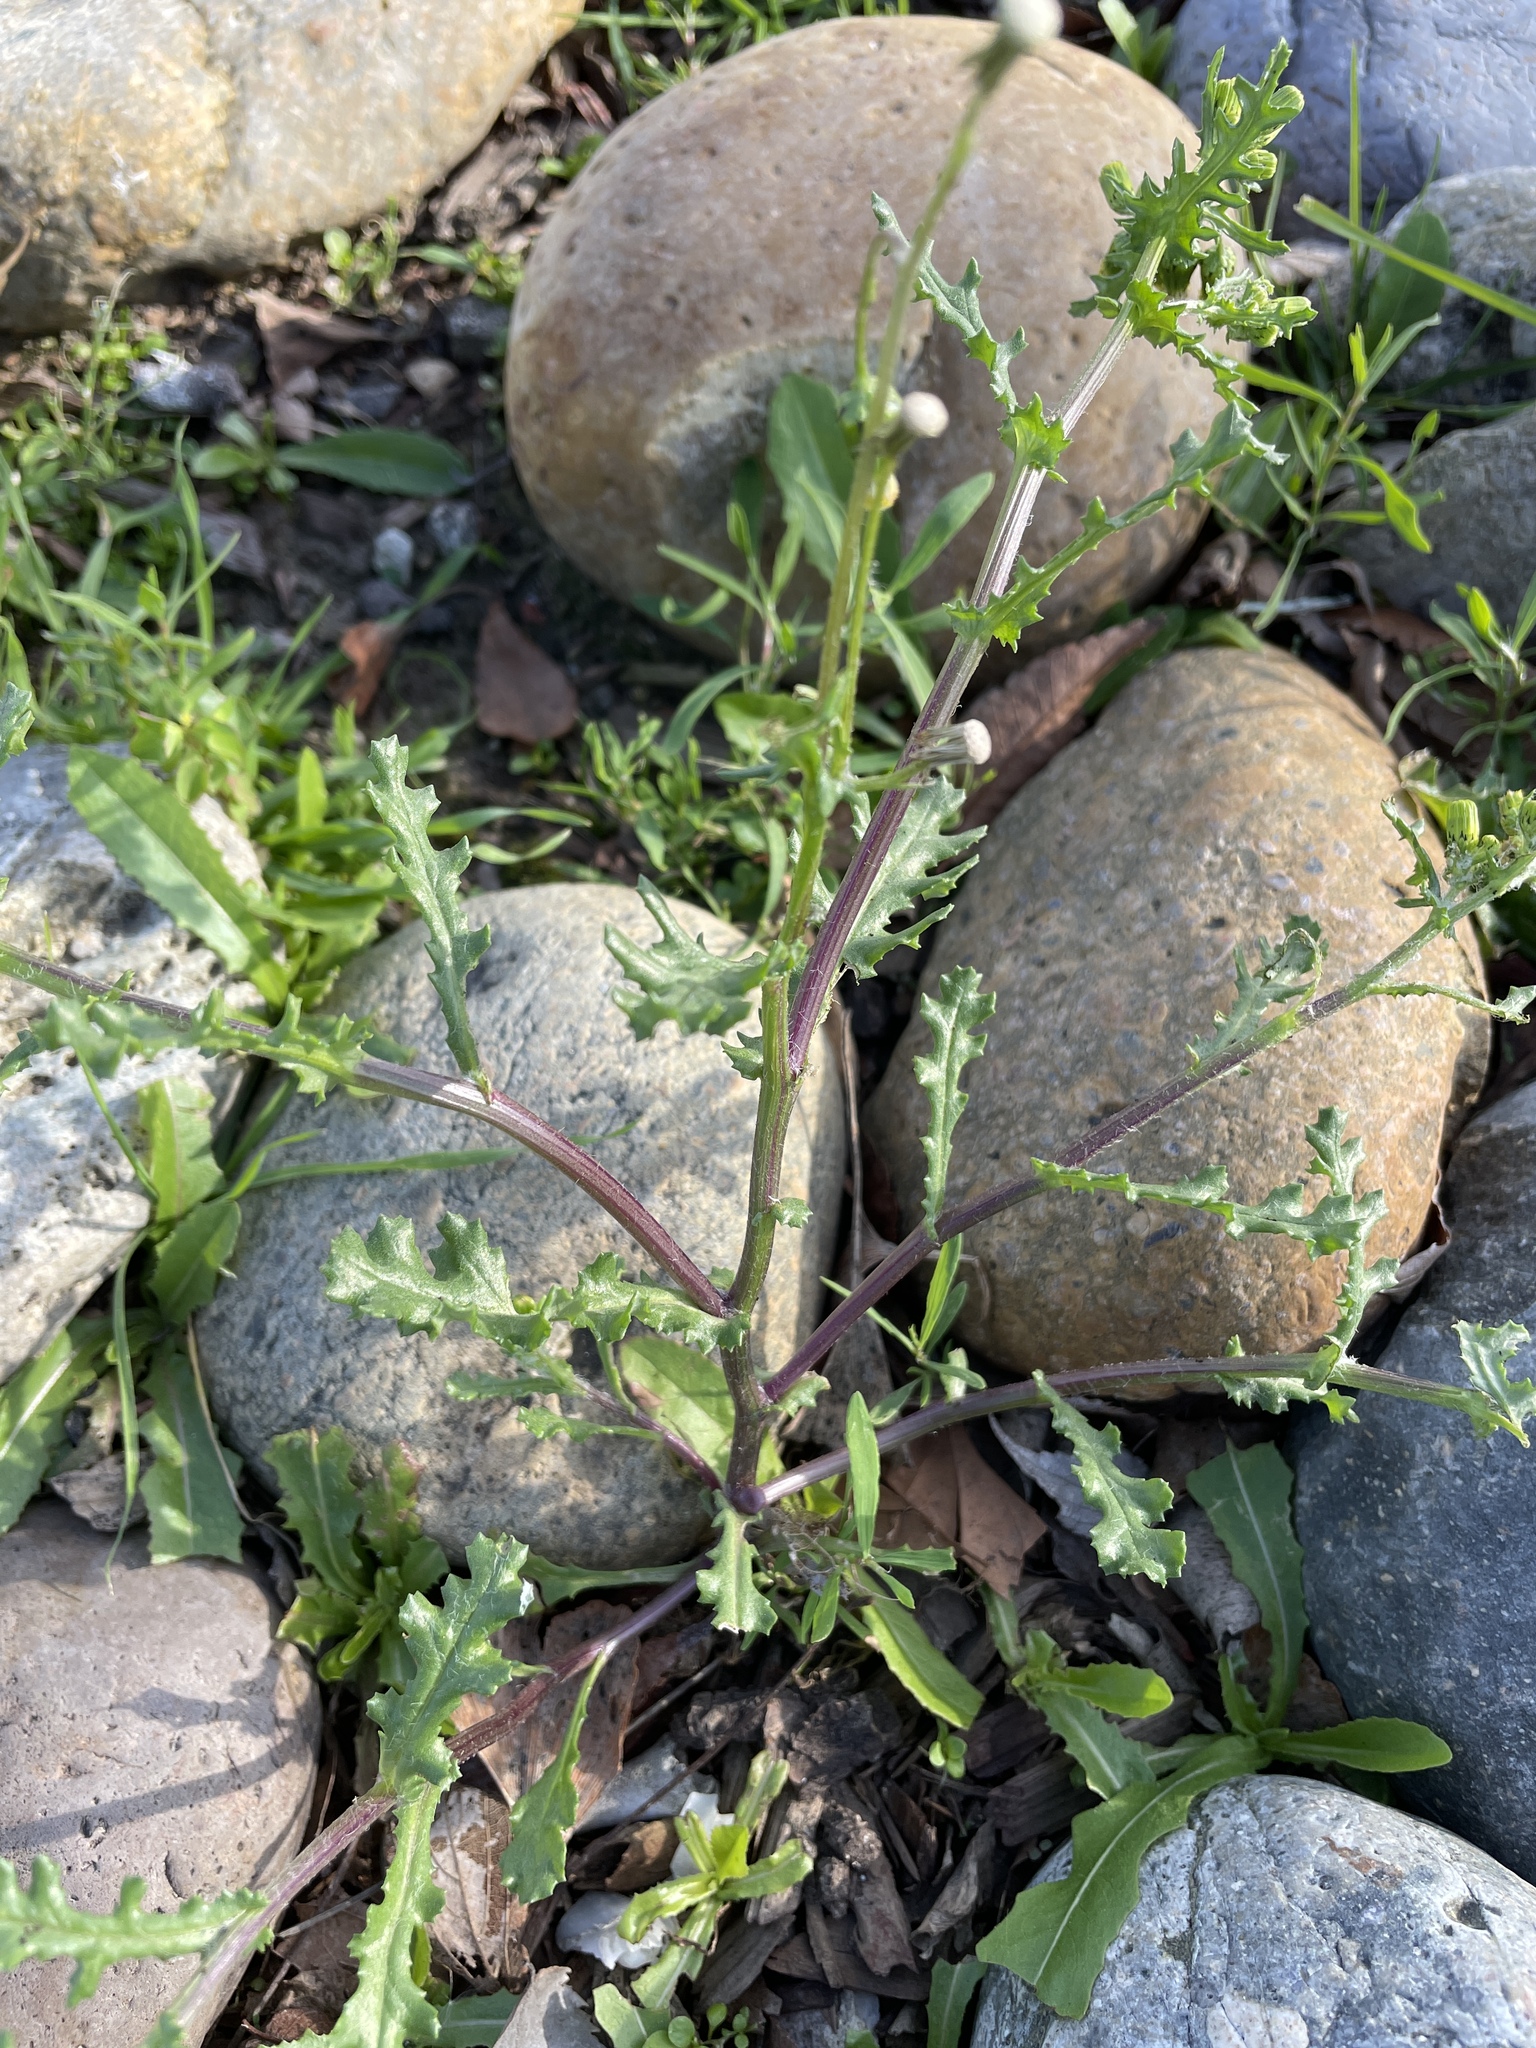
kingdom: Plantae
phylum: Tracheophyta
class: Magnoliopsida
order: Asterales
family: Asteraceae
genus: Senecio
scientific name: Senecio vulgaris
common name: Old-man-in-the-spring
